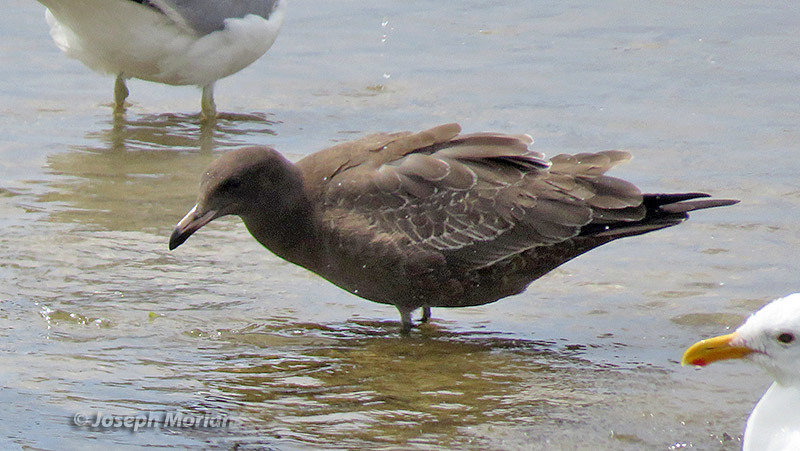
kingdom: Animalia
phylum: Chordata
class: Aves
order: Charadriiformes
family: Laridae
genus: Larus
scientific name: Larus heermanni
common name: Heermann's gull
